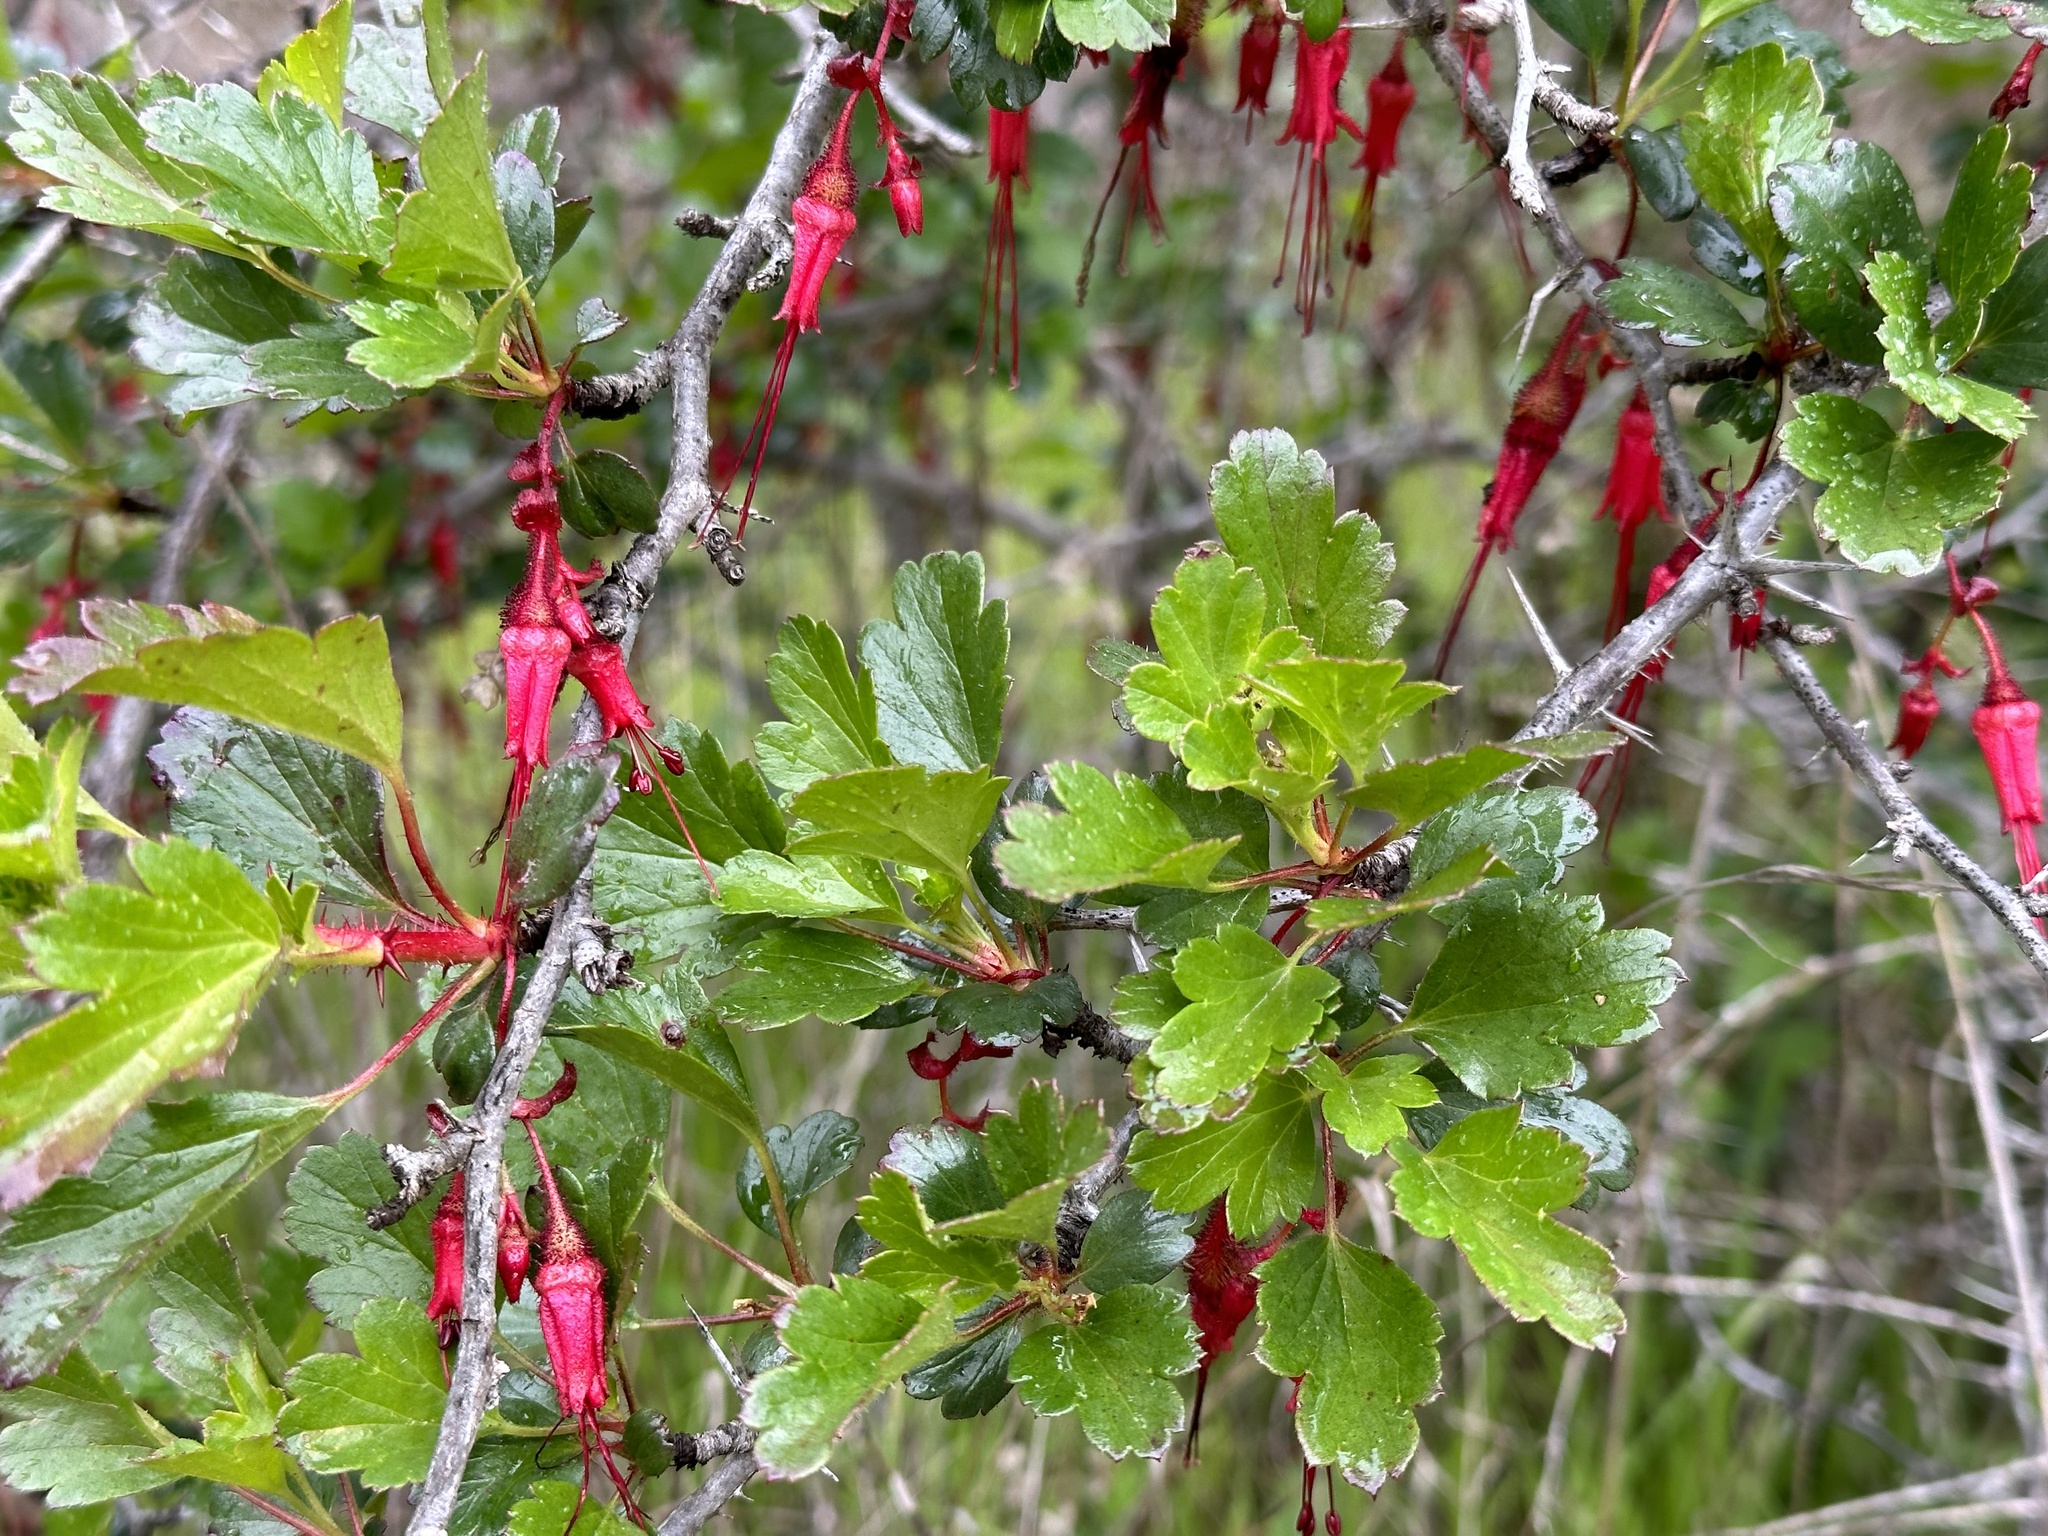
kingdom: Plantae
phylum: Tracheophyta
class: Magnoliopsida
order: Saxifragales
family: Grossulariaceae
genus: Ribes
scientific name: Ribes speciosum
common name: Fuchsia-flower gooseberry
